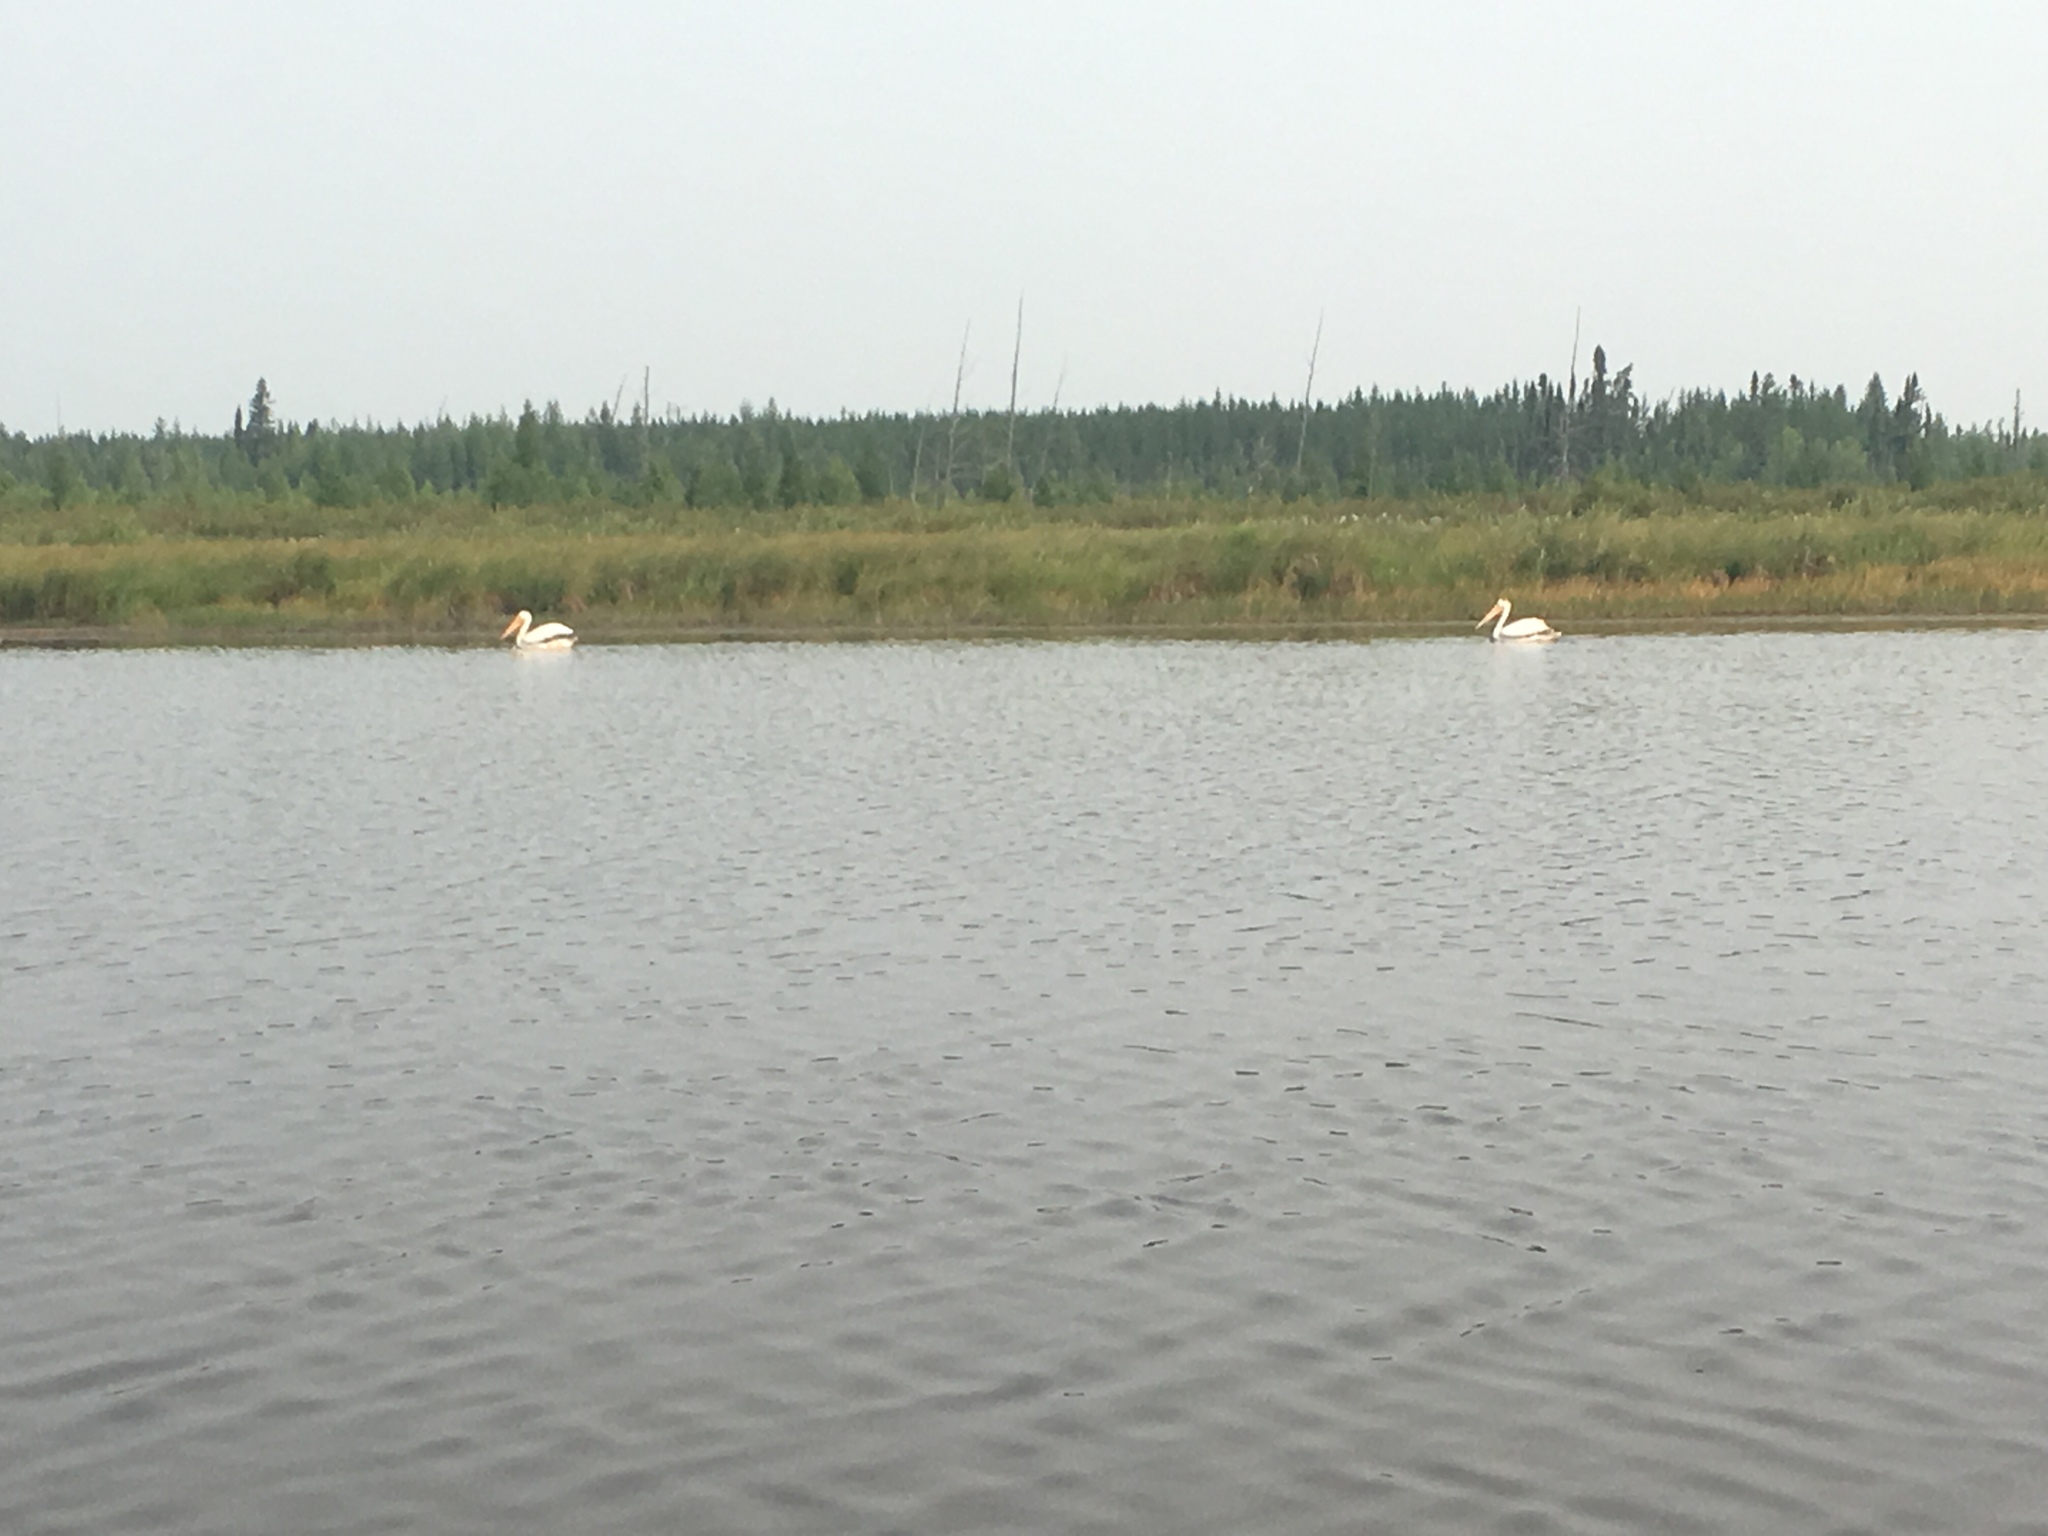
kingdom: Animalia
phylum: Chordata
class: Aves
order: Pelecaniformes
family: Pelecanidae
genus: Pelecanus
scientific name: Pelecanus erythrorhynchos
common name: American white pelican
